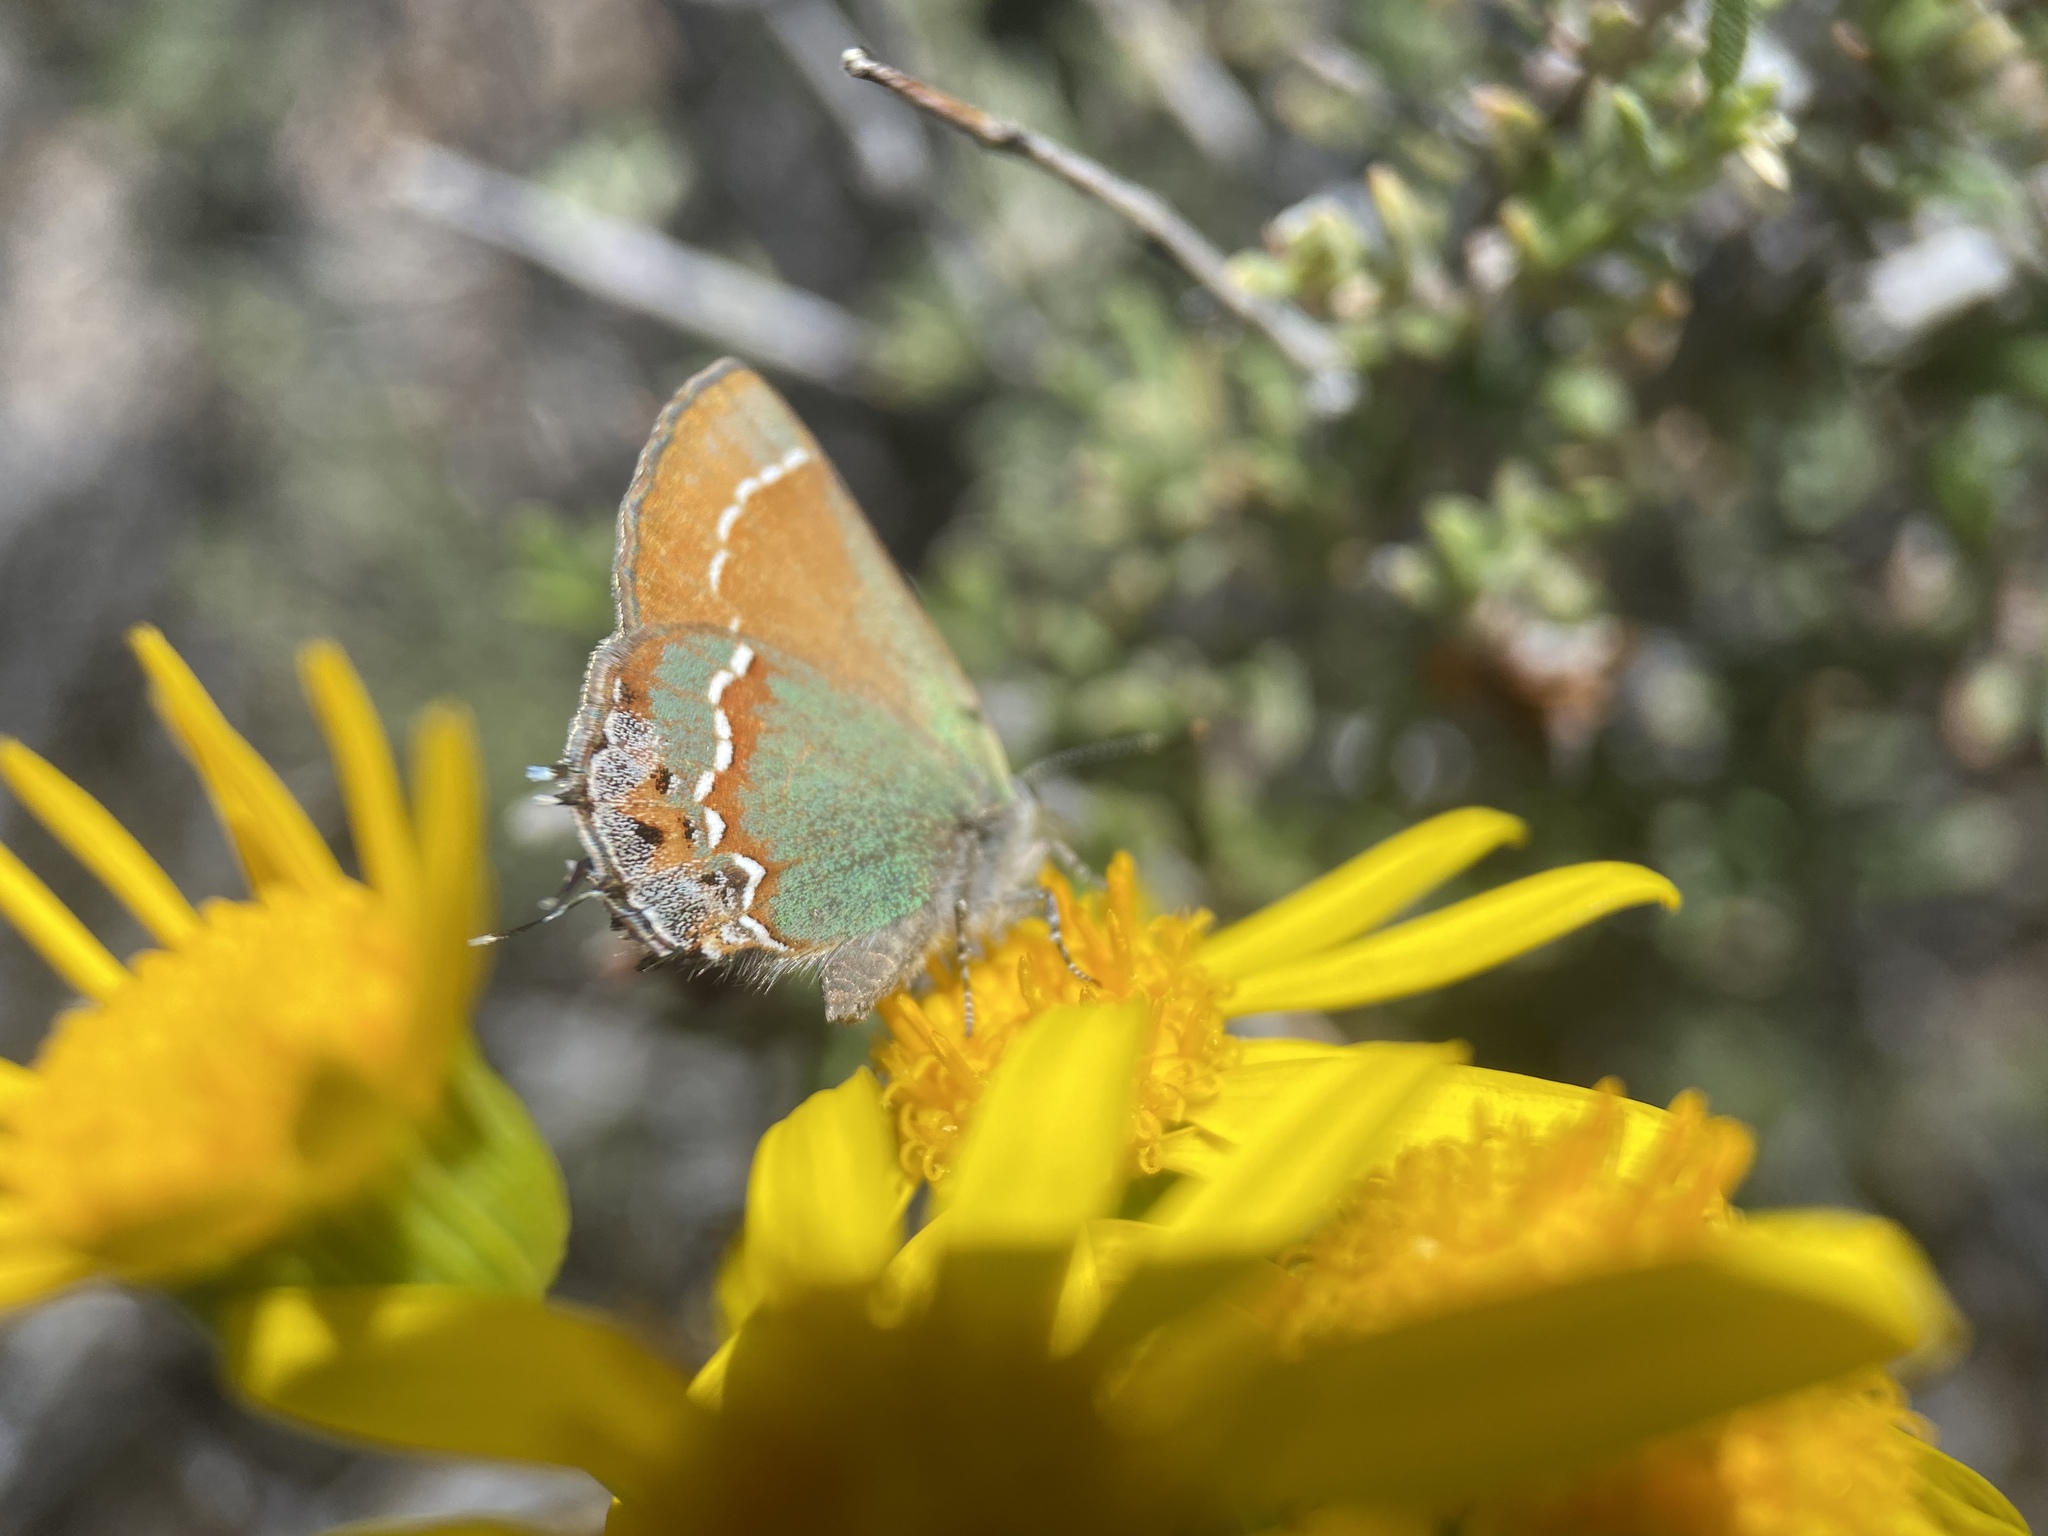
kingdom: Animalia
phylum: Arthropoda
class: Insecta
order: Lepidoptera
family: Lycaenidae
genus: Mitoura
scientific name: Mitoura gryneus
